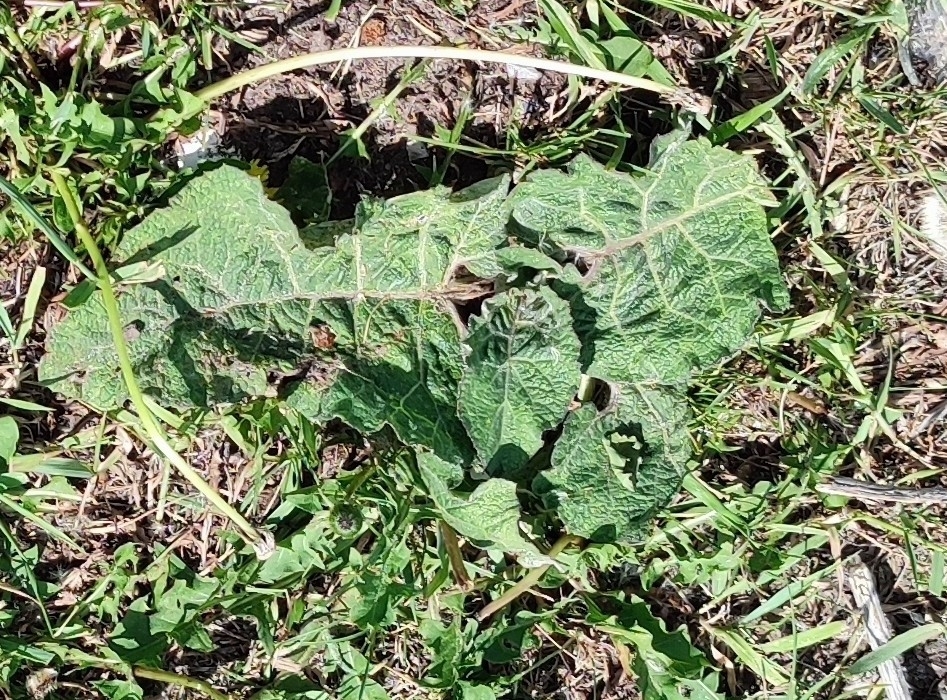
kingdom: Plantae
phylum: Tracheophyta
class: Magnoliopsida
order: Asterales
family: Asteraceae
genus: Arctium
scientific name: Arctium tomentosum
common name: Woolly burdock
